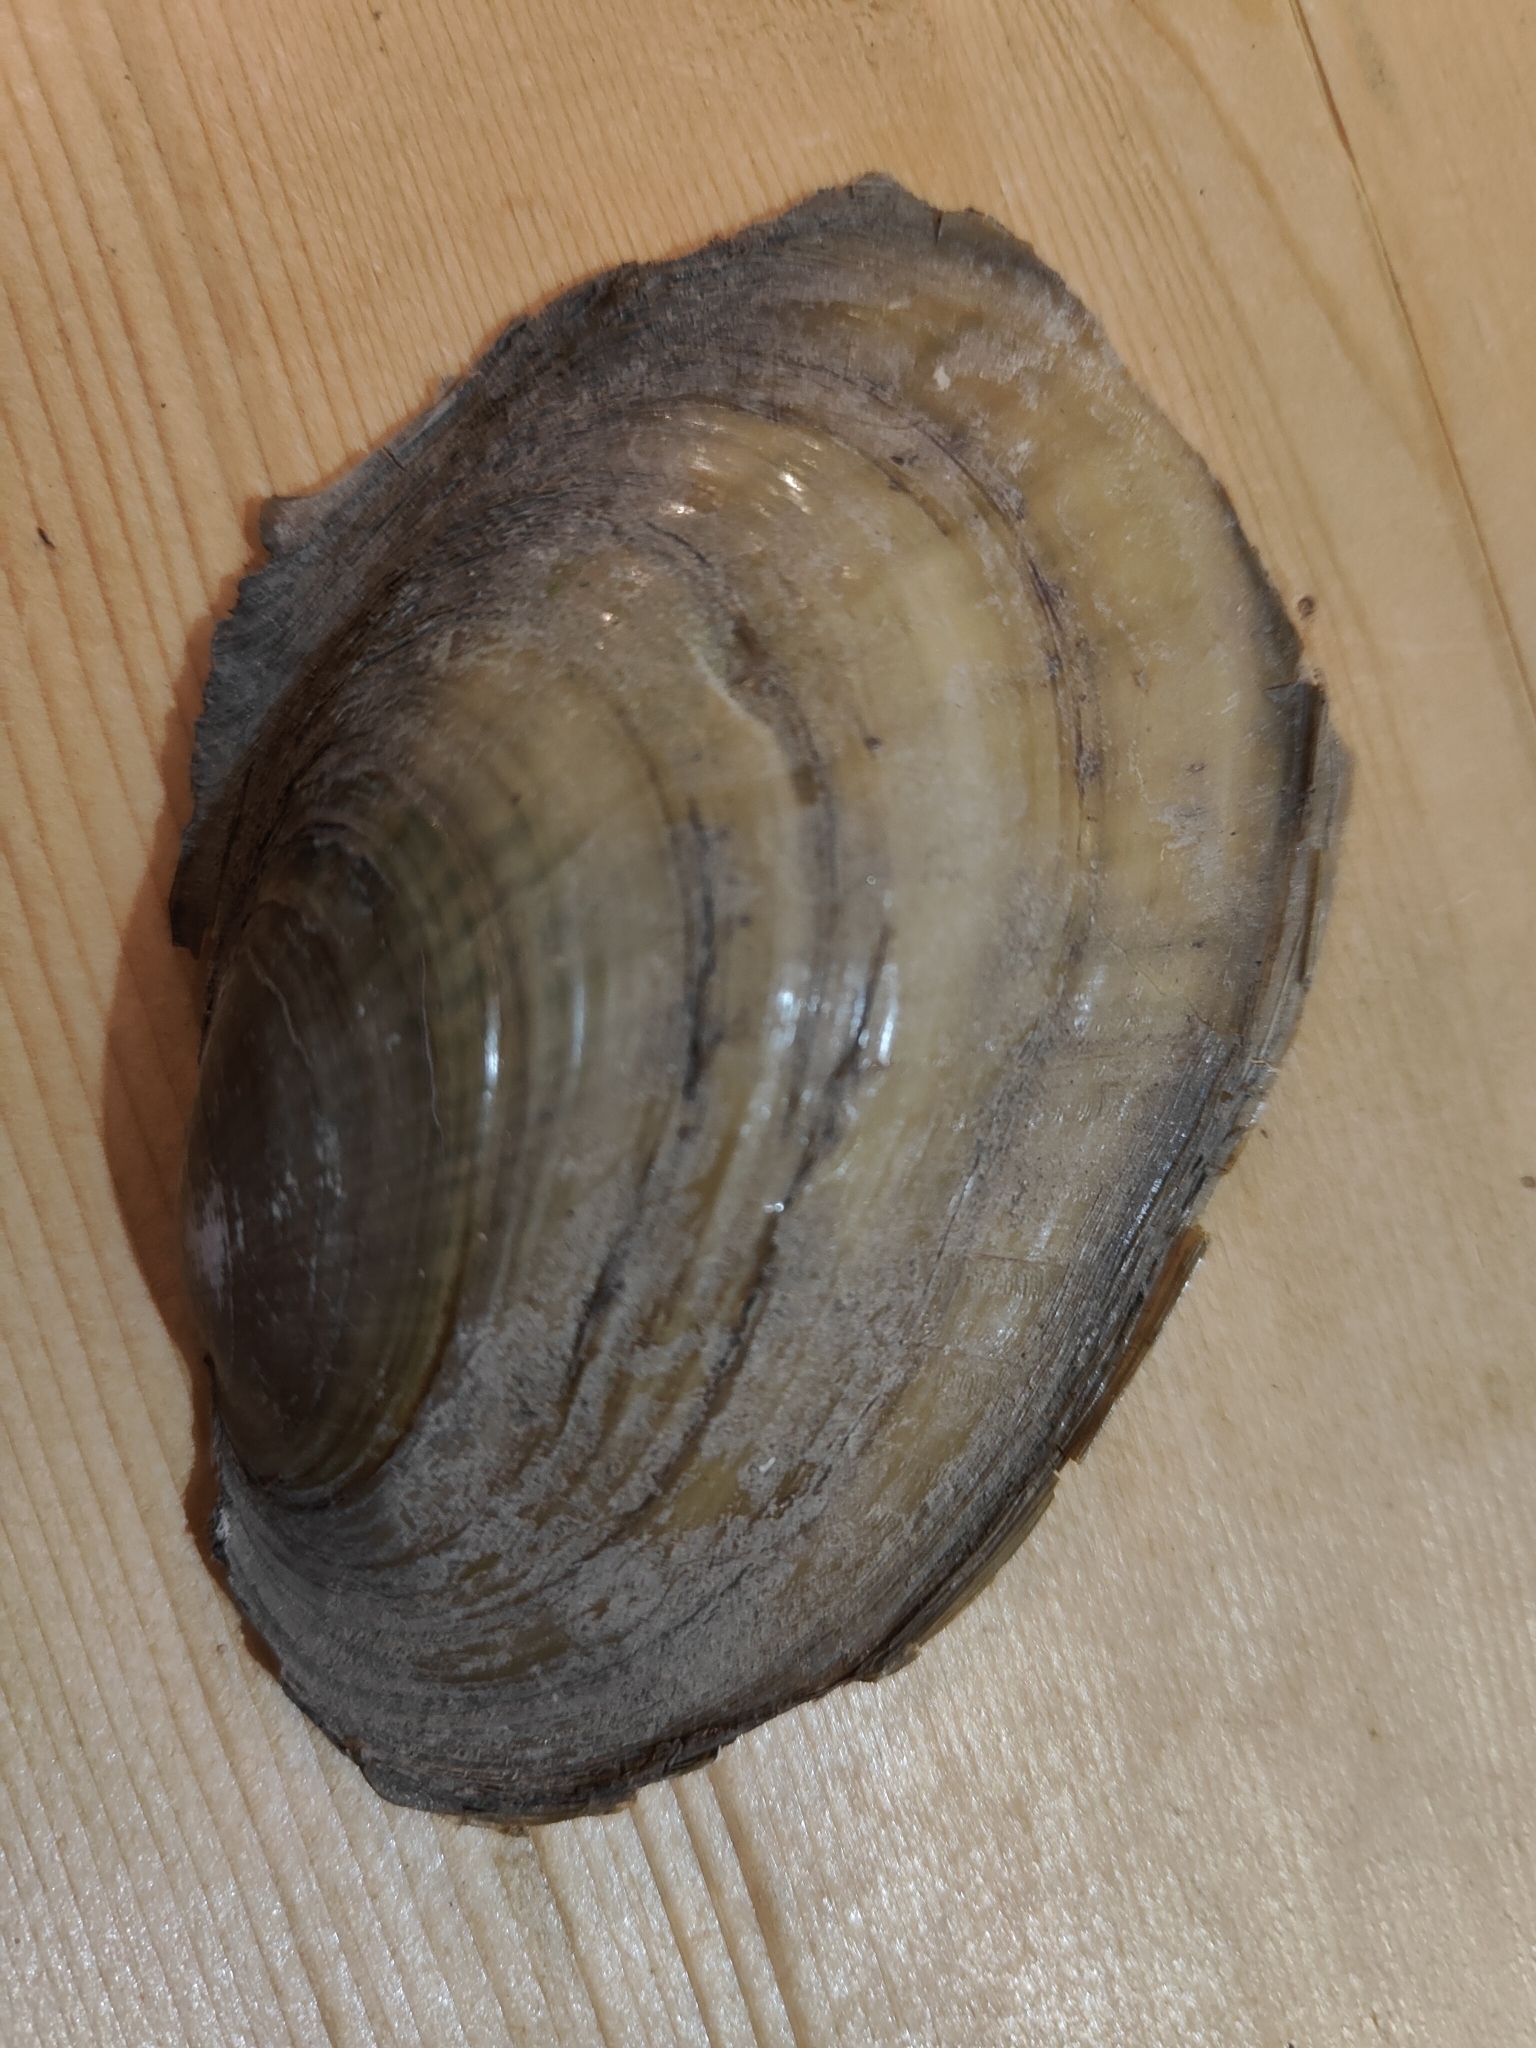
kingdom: Animalia
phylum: Mollusca
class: Bivalvia
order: Unionida
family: Unionidae
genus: Potamilus
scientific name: Potamilus fragilis
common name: Fragile papershell
